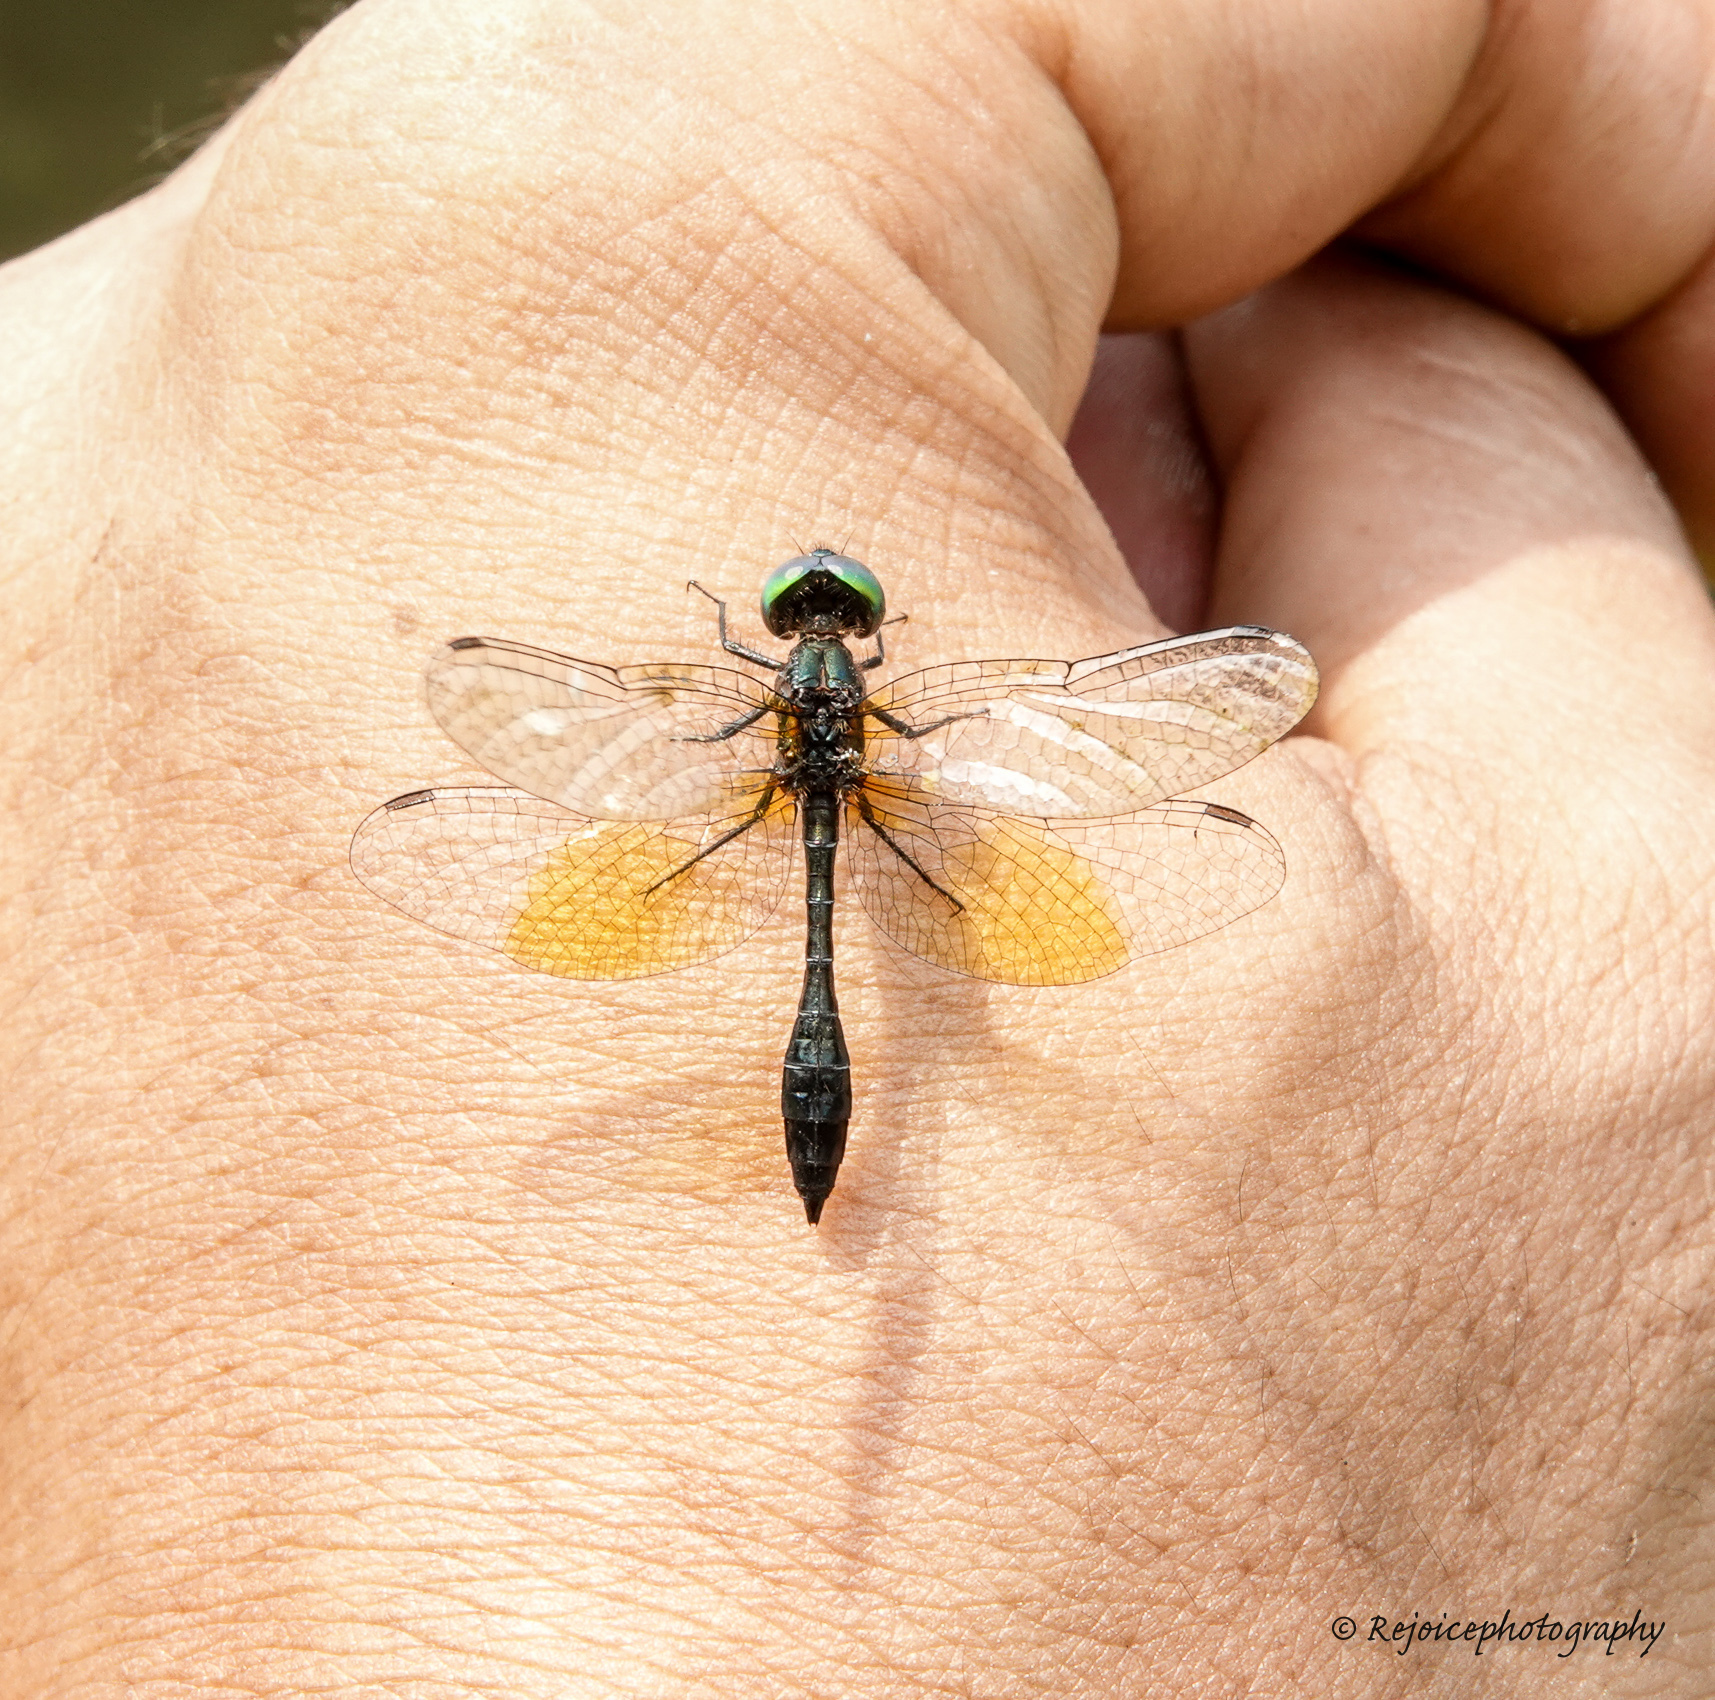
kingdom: Animalia
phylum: Arthropoda
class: Insecta
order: Odonata
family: Libellulidae
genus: Nannophyopsis
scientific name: Nannophyopsis clara
